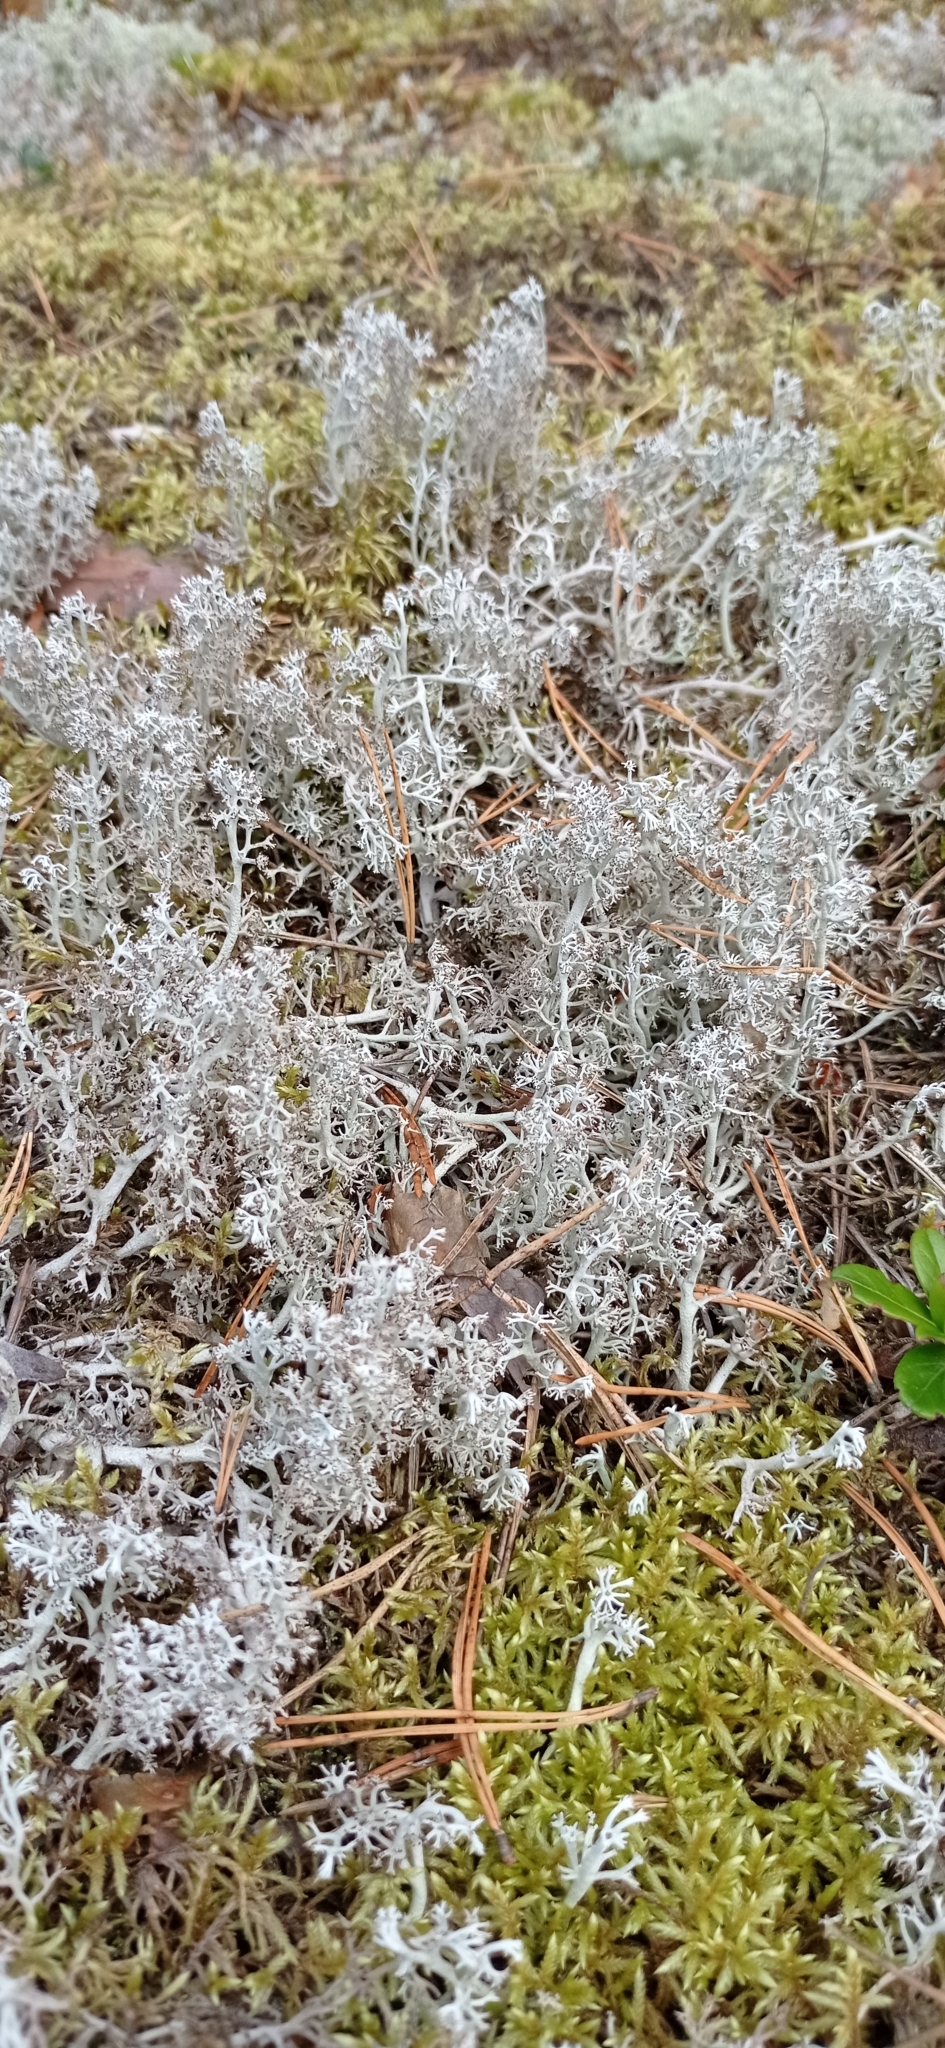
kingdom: Fungi
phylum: Ascomycota
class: Lecanoromycetes
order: Lecanorales
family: Cladoniaceae
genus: Cladonia
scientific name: Cladonia rangiferina
